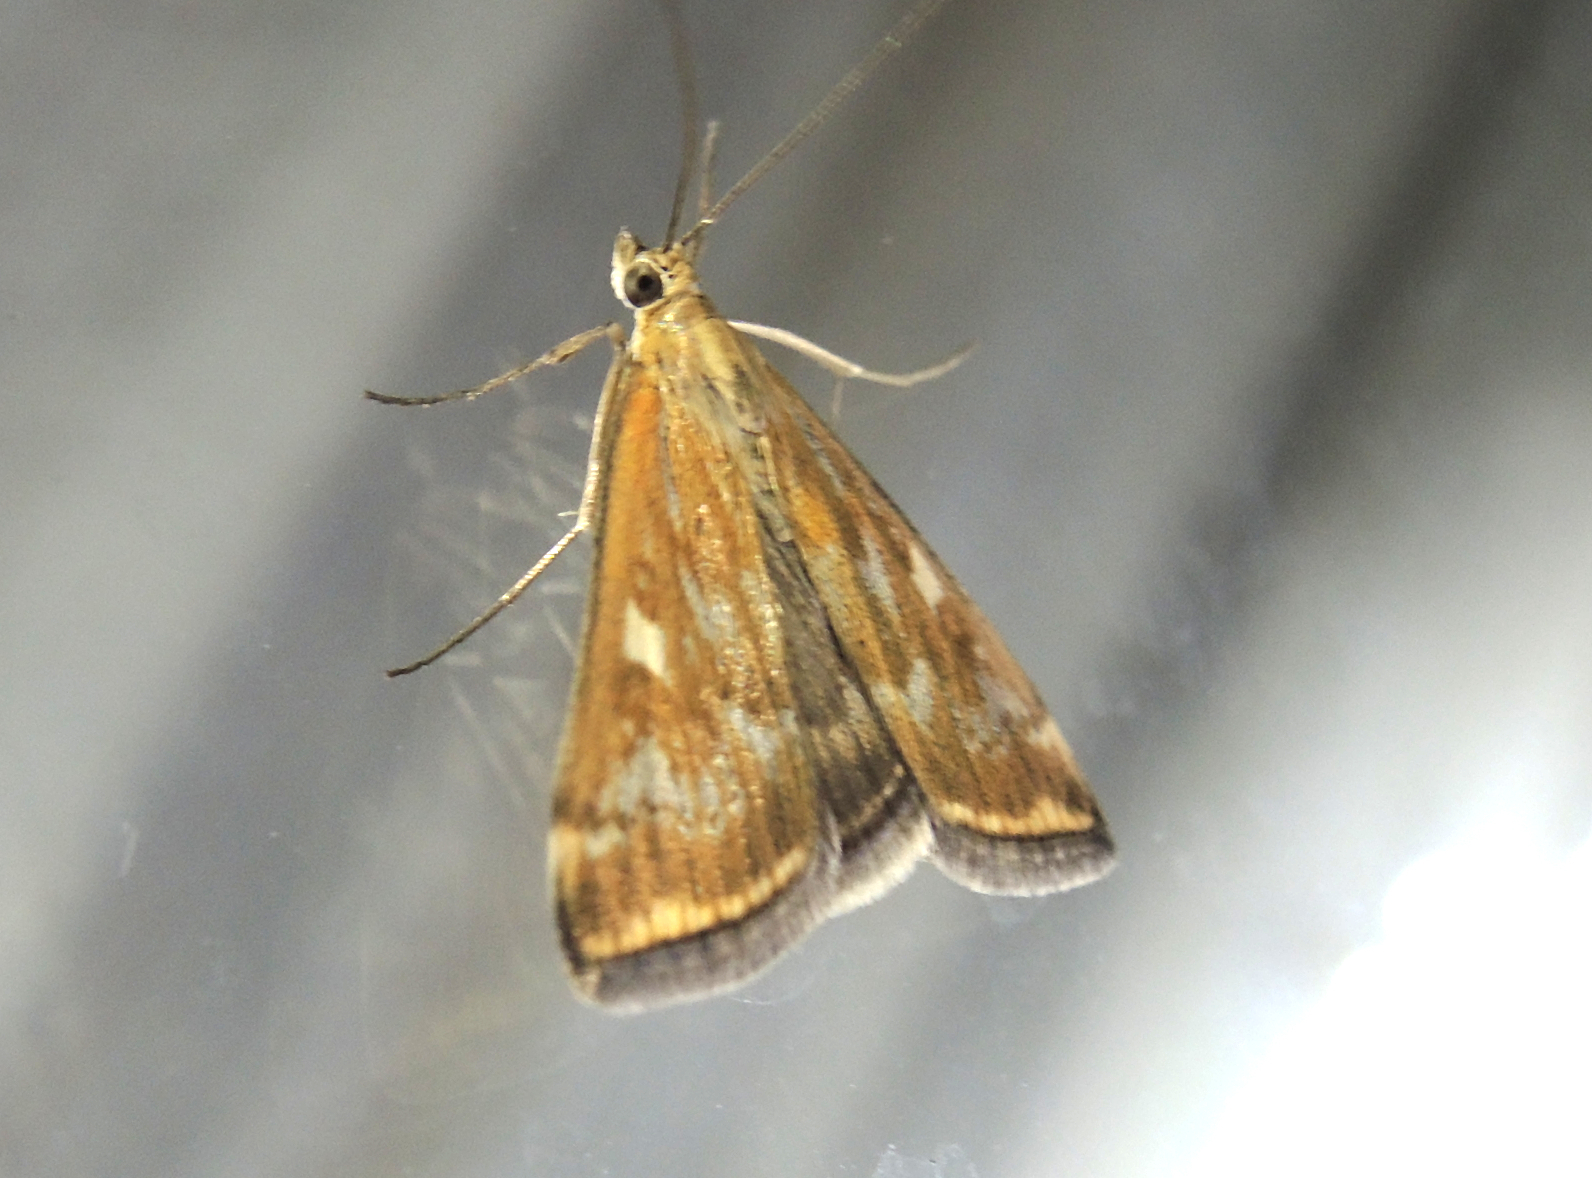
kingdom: Animalia
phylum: Arthropoda
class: Insecta
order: Lepidoptera
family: Crambidae
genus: Loxostege
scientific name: Loxostege sticticalis
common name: Crambid moth
